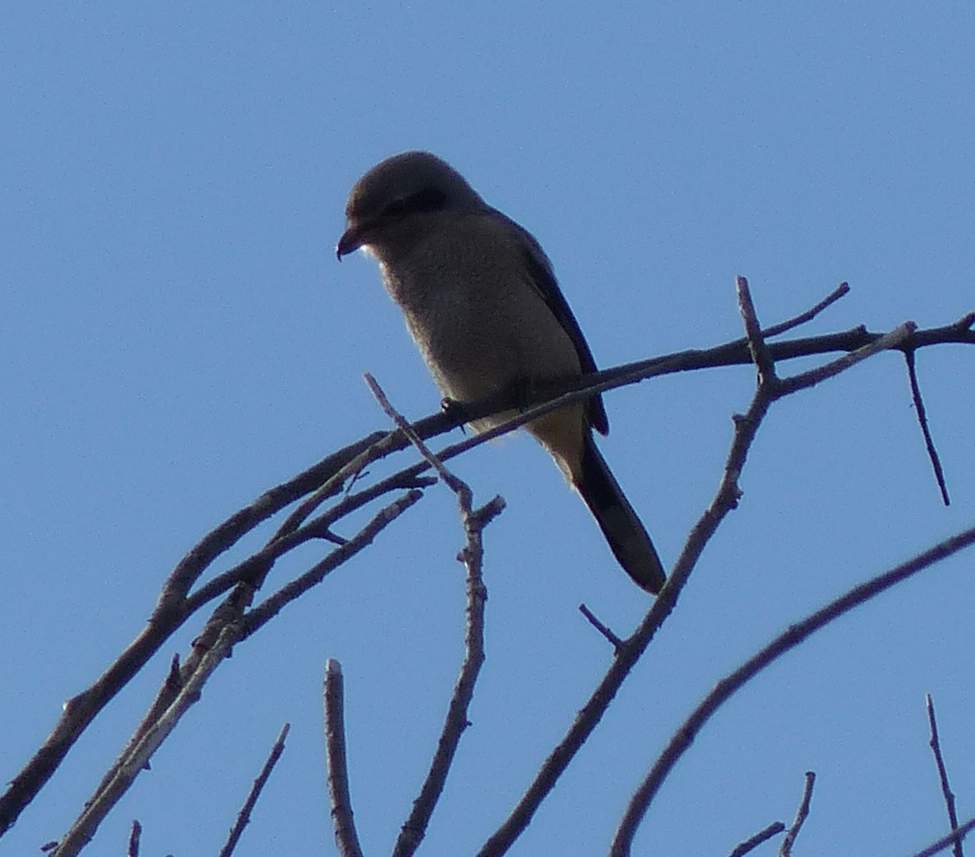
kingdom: Animalia
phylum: Chordata
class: Aves
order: Passeriformes
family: Laniidae
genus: Lanius
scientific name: Lanius borealis
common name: Northern shrike
